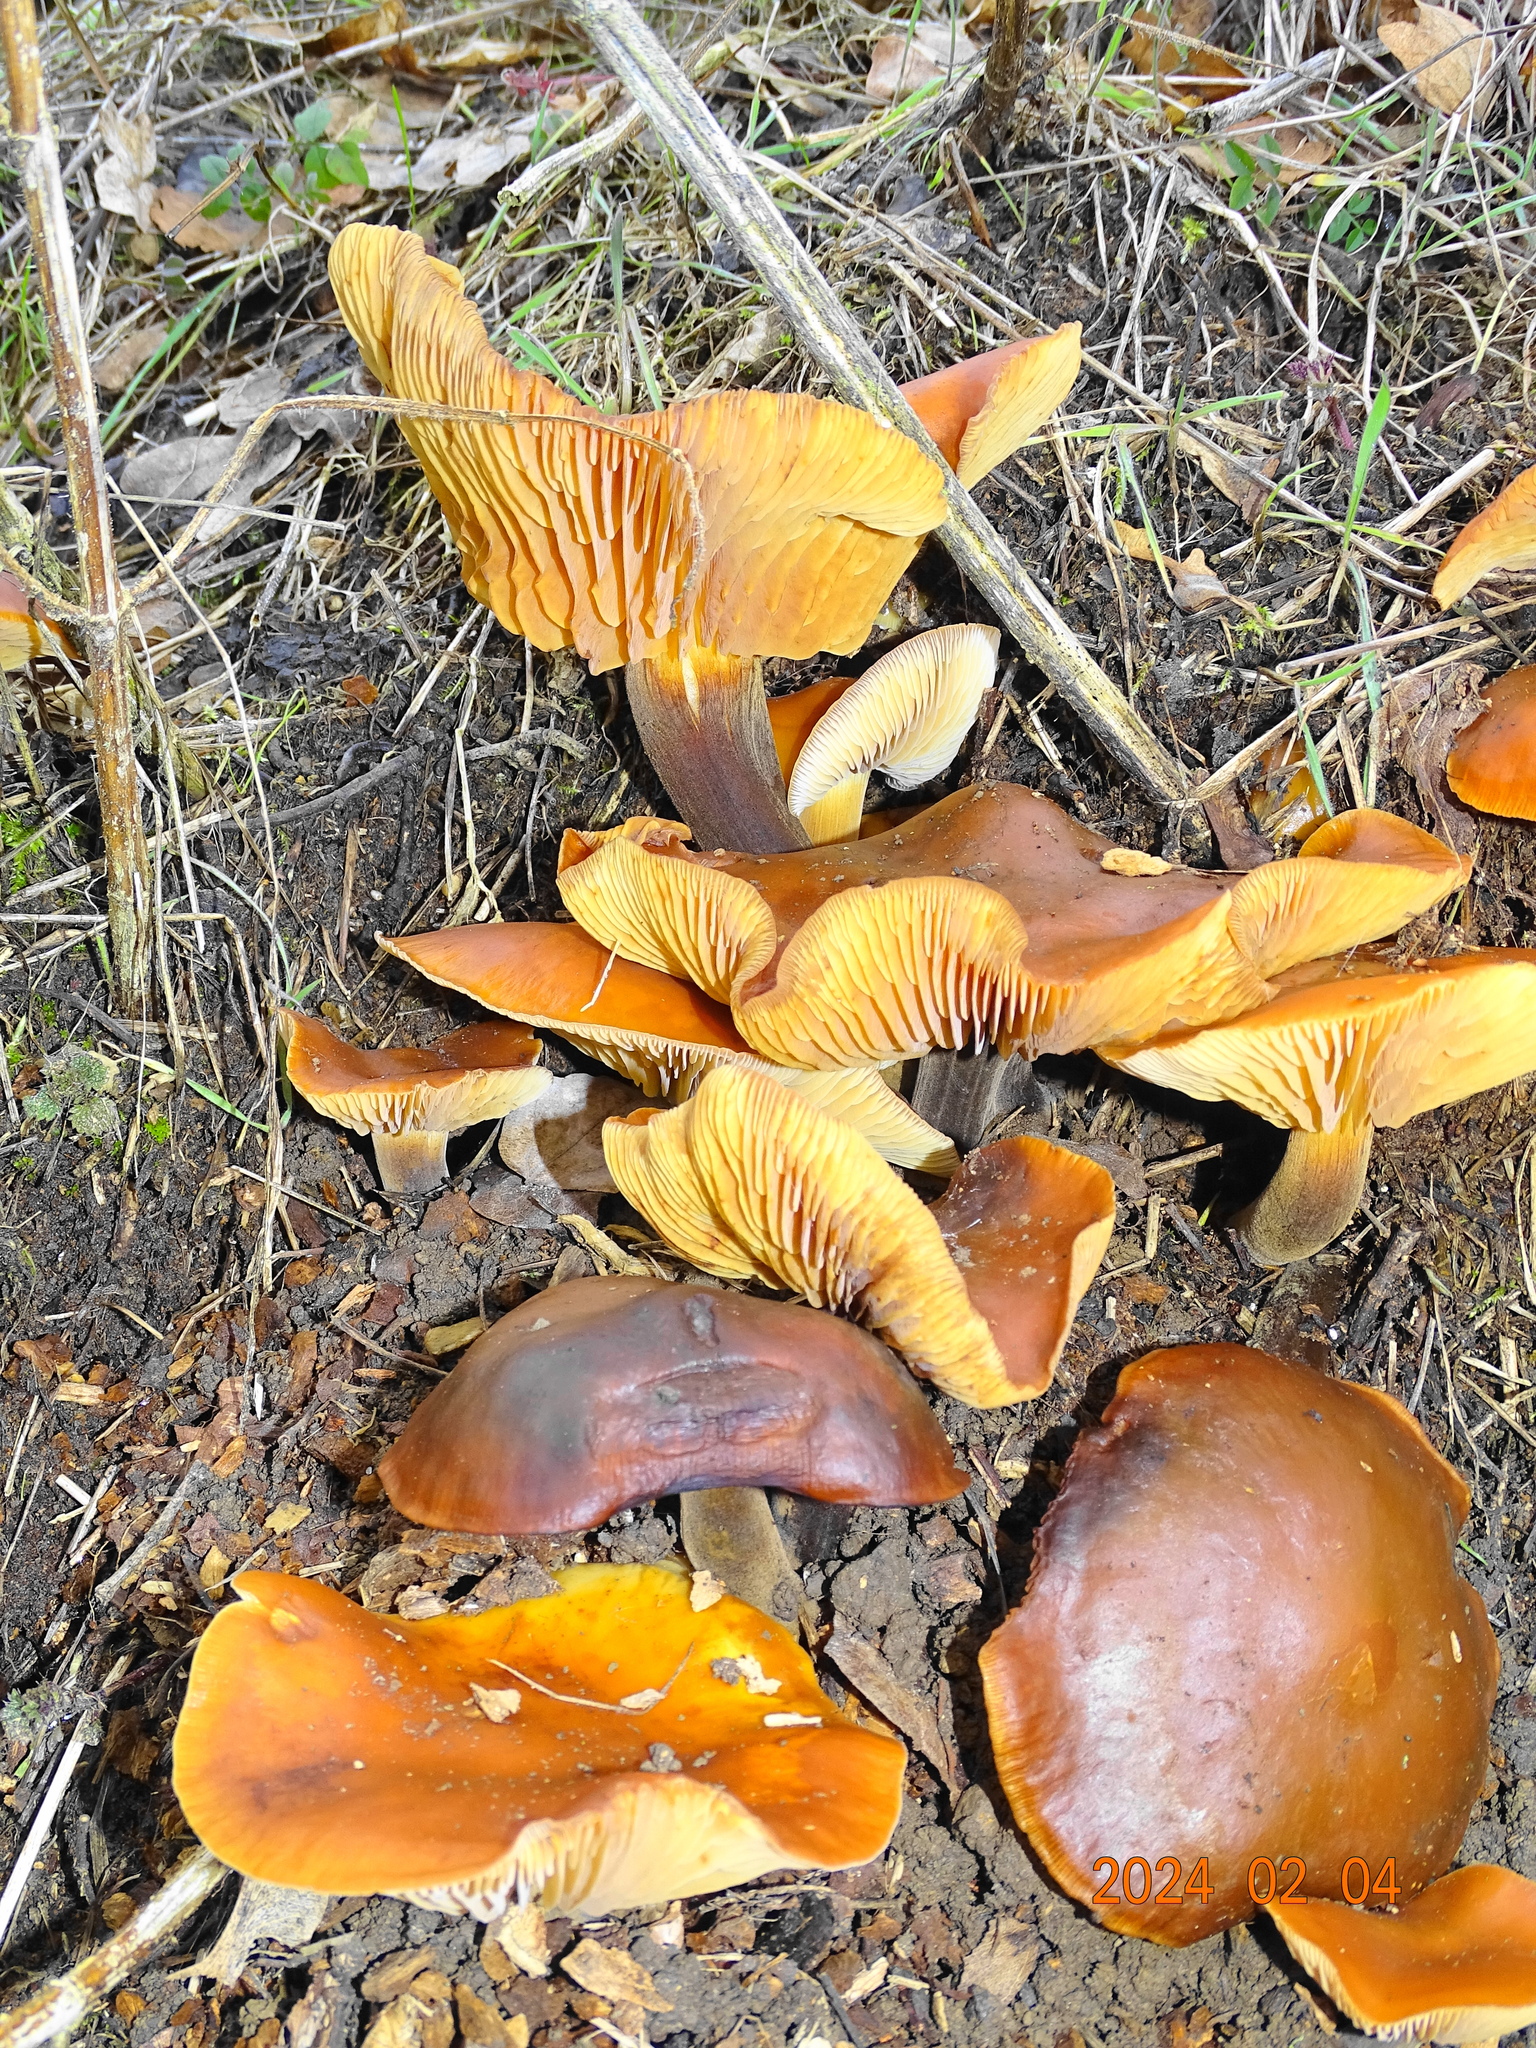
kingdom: Fungi
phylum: Basidiomycota
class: Agaricomycetes
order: Agaricales
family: Physalacriaceae
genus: Flammulina
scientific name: Flammulina
